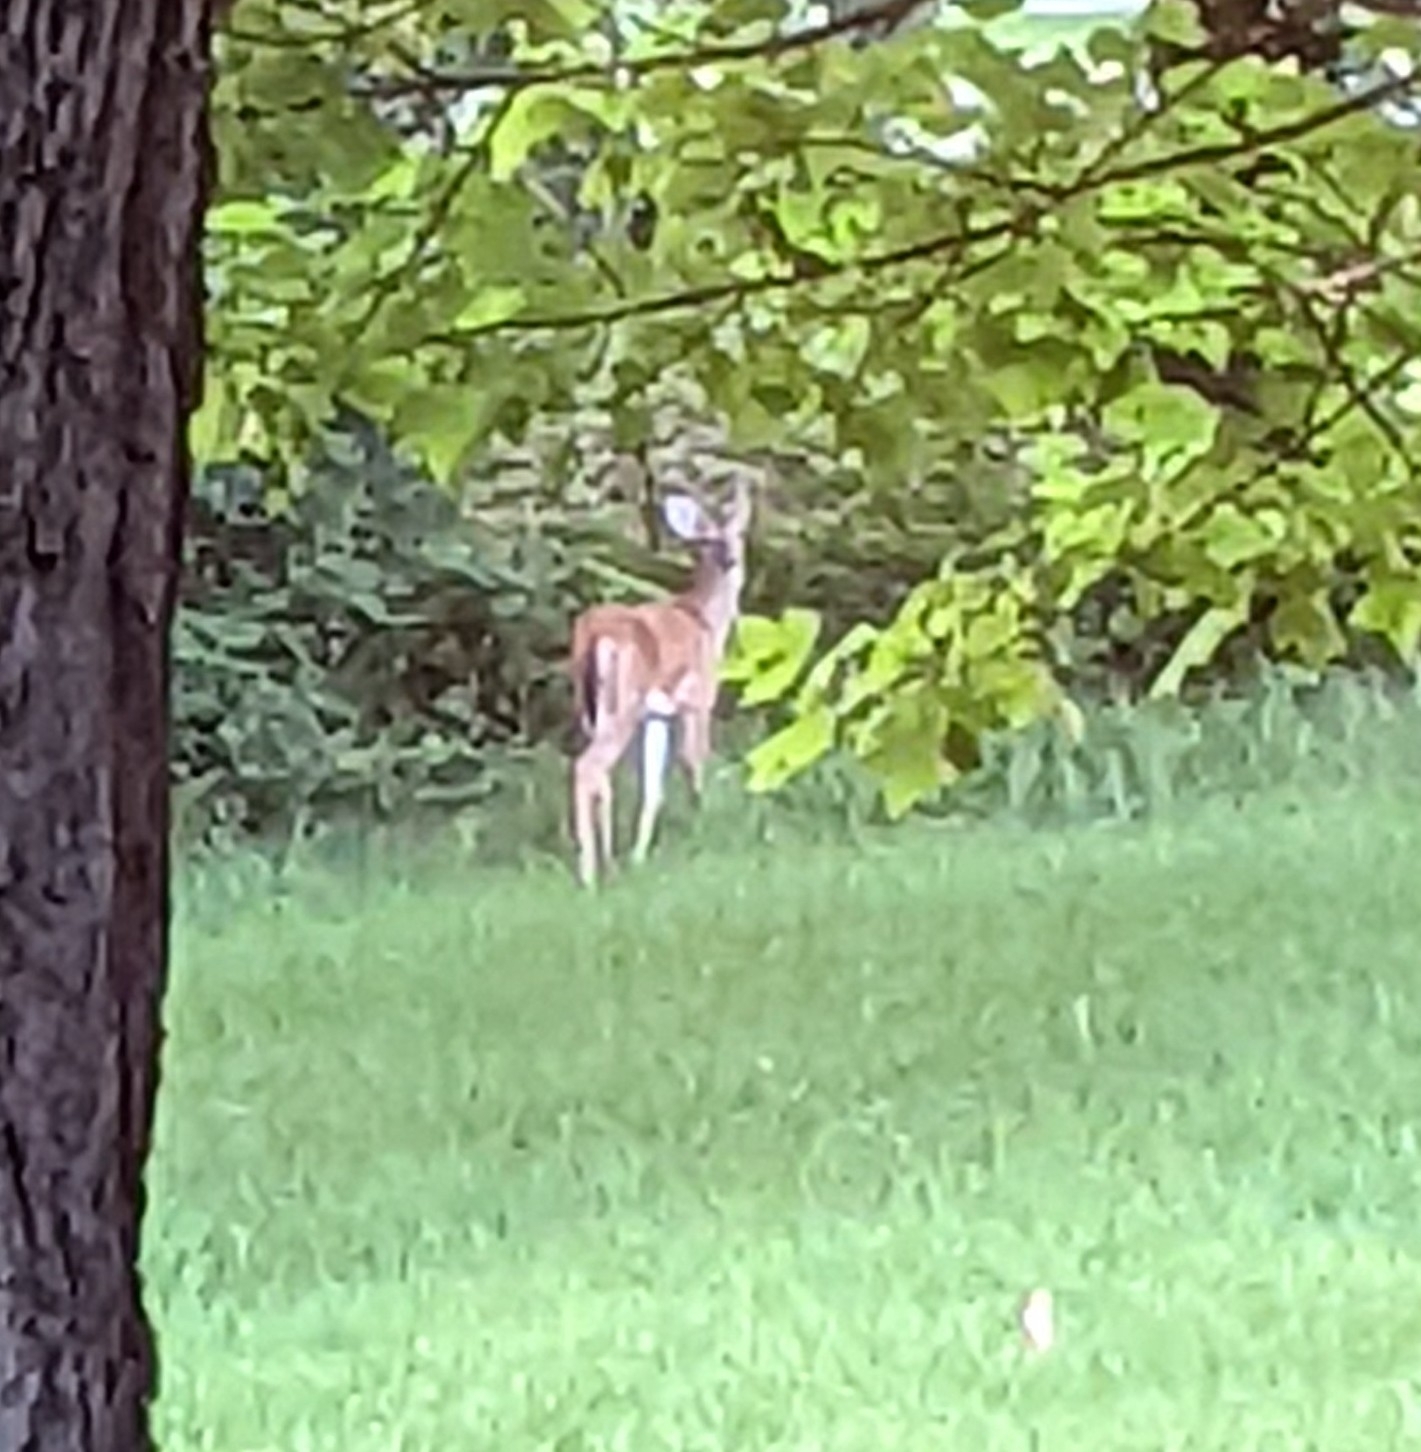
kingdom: Animalia
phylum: Chordata
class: Mammalia
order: Artiodactyla
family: Cervidae
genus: Odocoileus
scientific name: Odocoileus virginianus
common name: White-tailed deer
